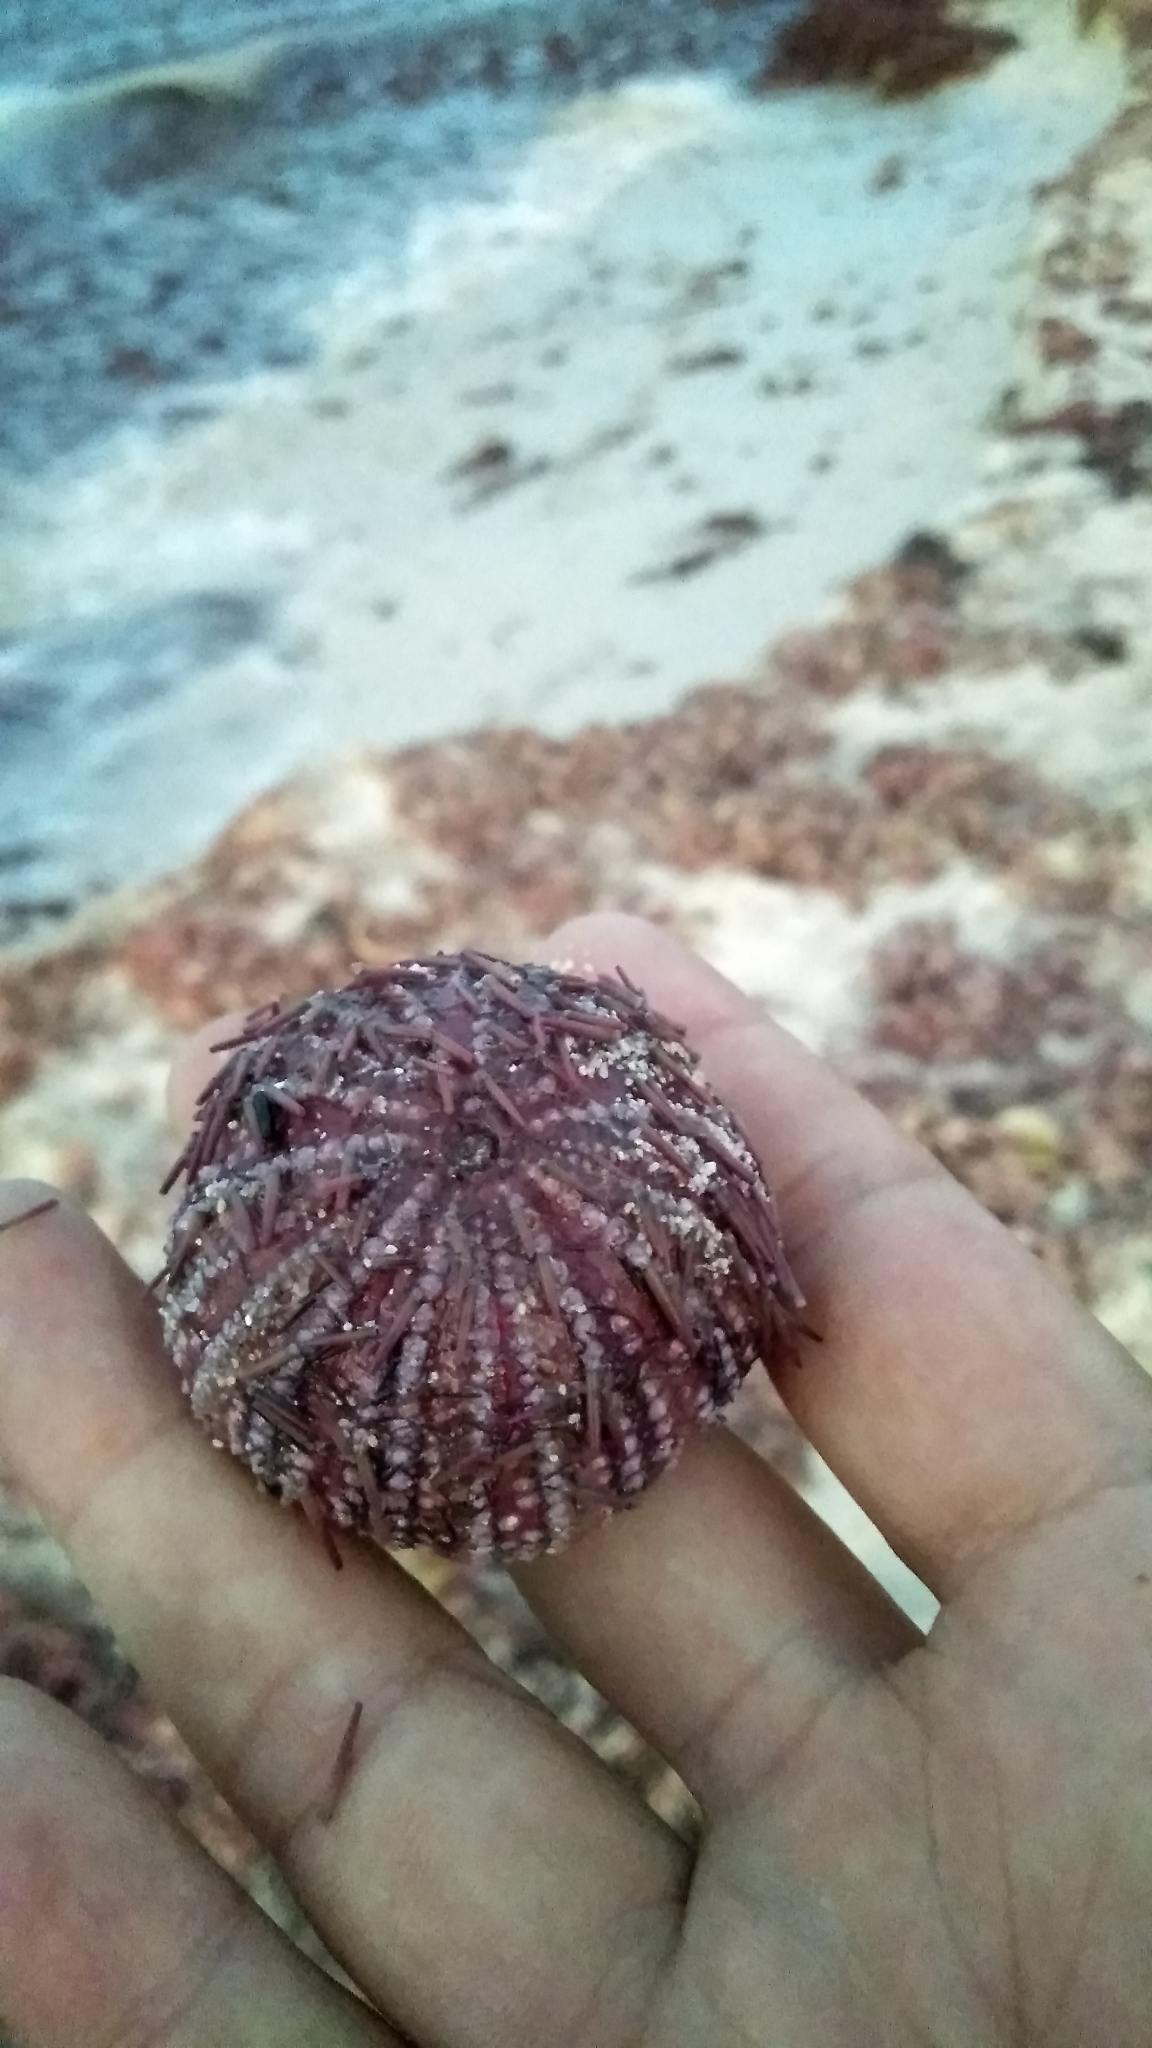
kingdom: Animalia
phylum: Echinodermata
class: Echinoidea
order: Camarodonta
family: Toxopneustidae
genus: Lytechinus
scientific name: Lytechinus variegatus
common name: Variegated urchin
